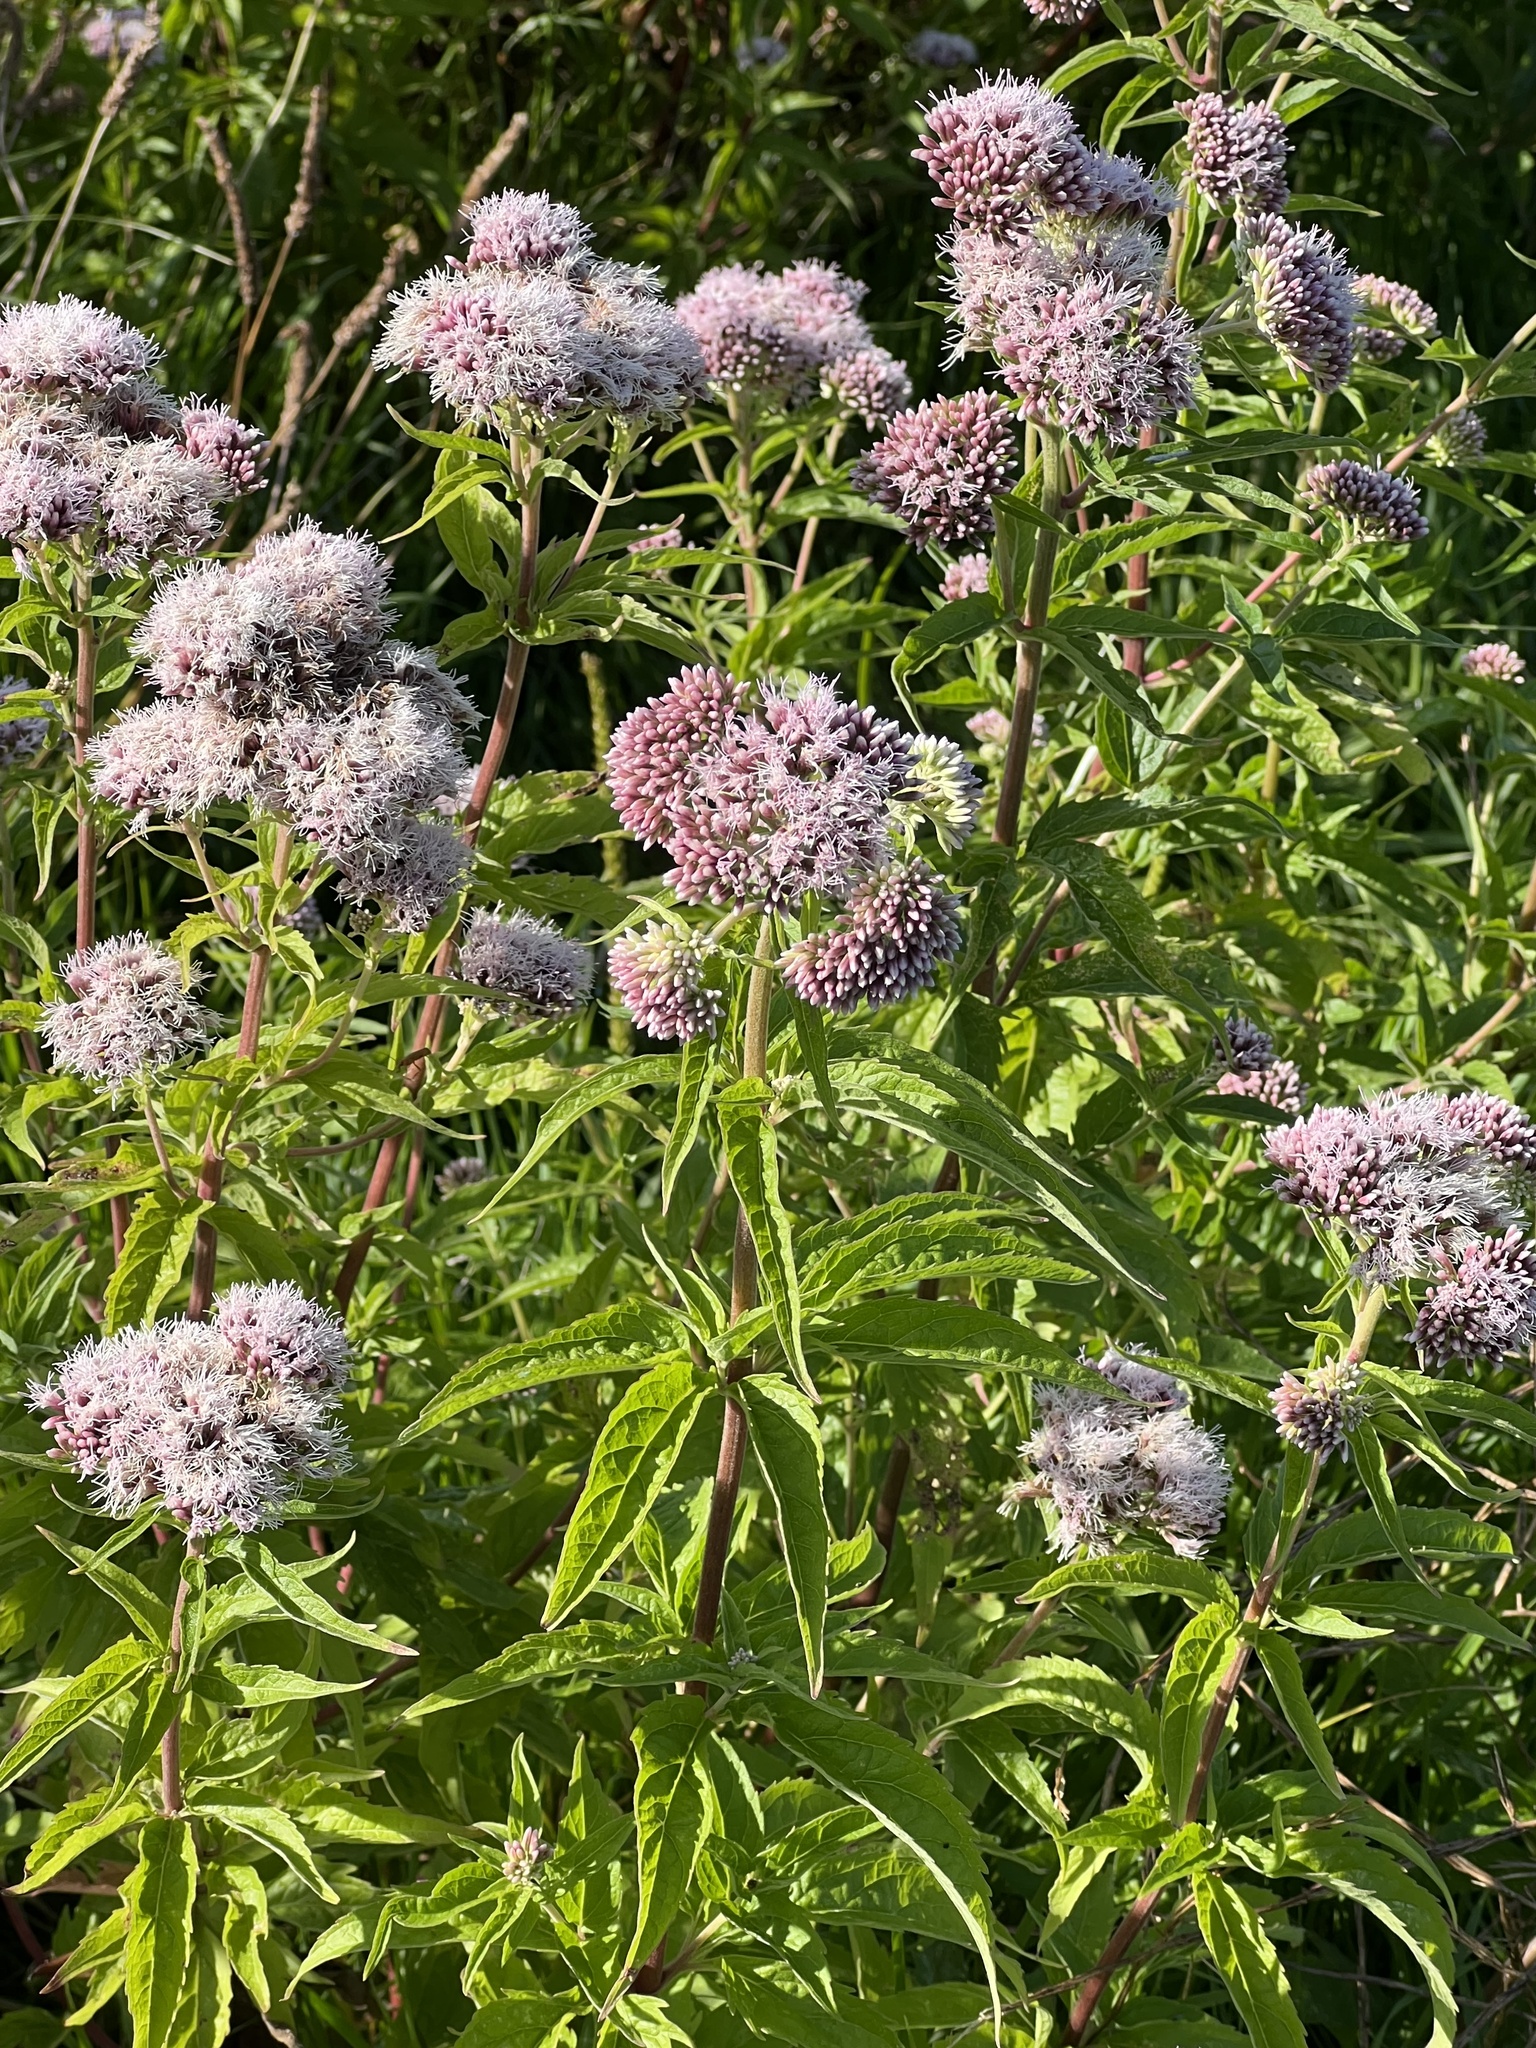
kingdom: Plantae
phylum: Tracheophyta
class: Magnoliopsida
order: Asterales
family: Asteraceae
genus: Eupatorium
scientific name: Eupatorium cannabinum
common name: Hemp-agrimony
